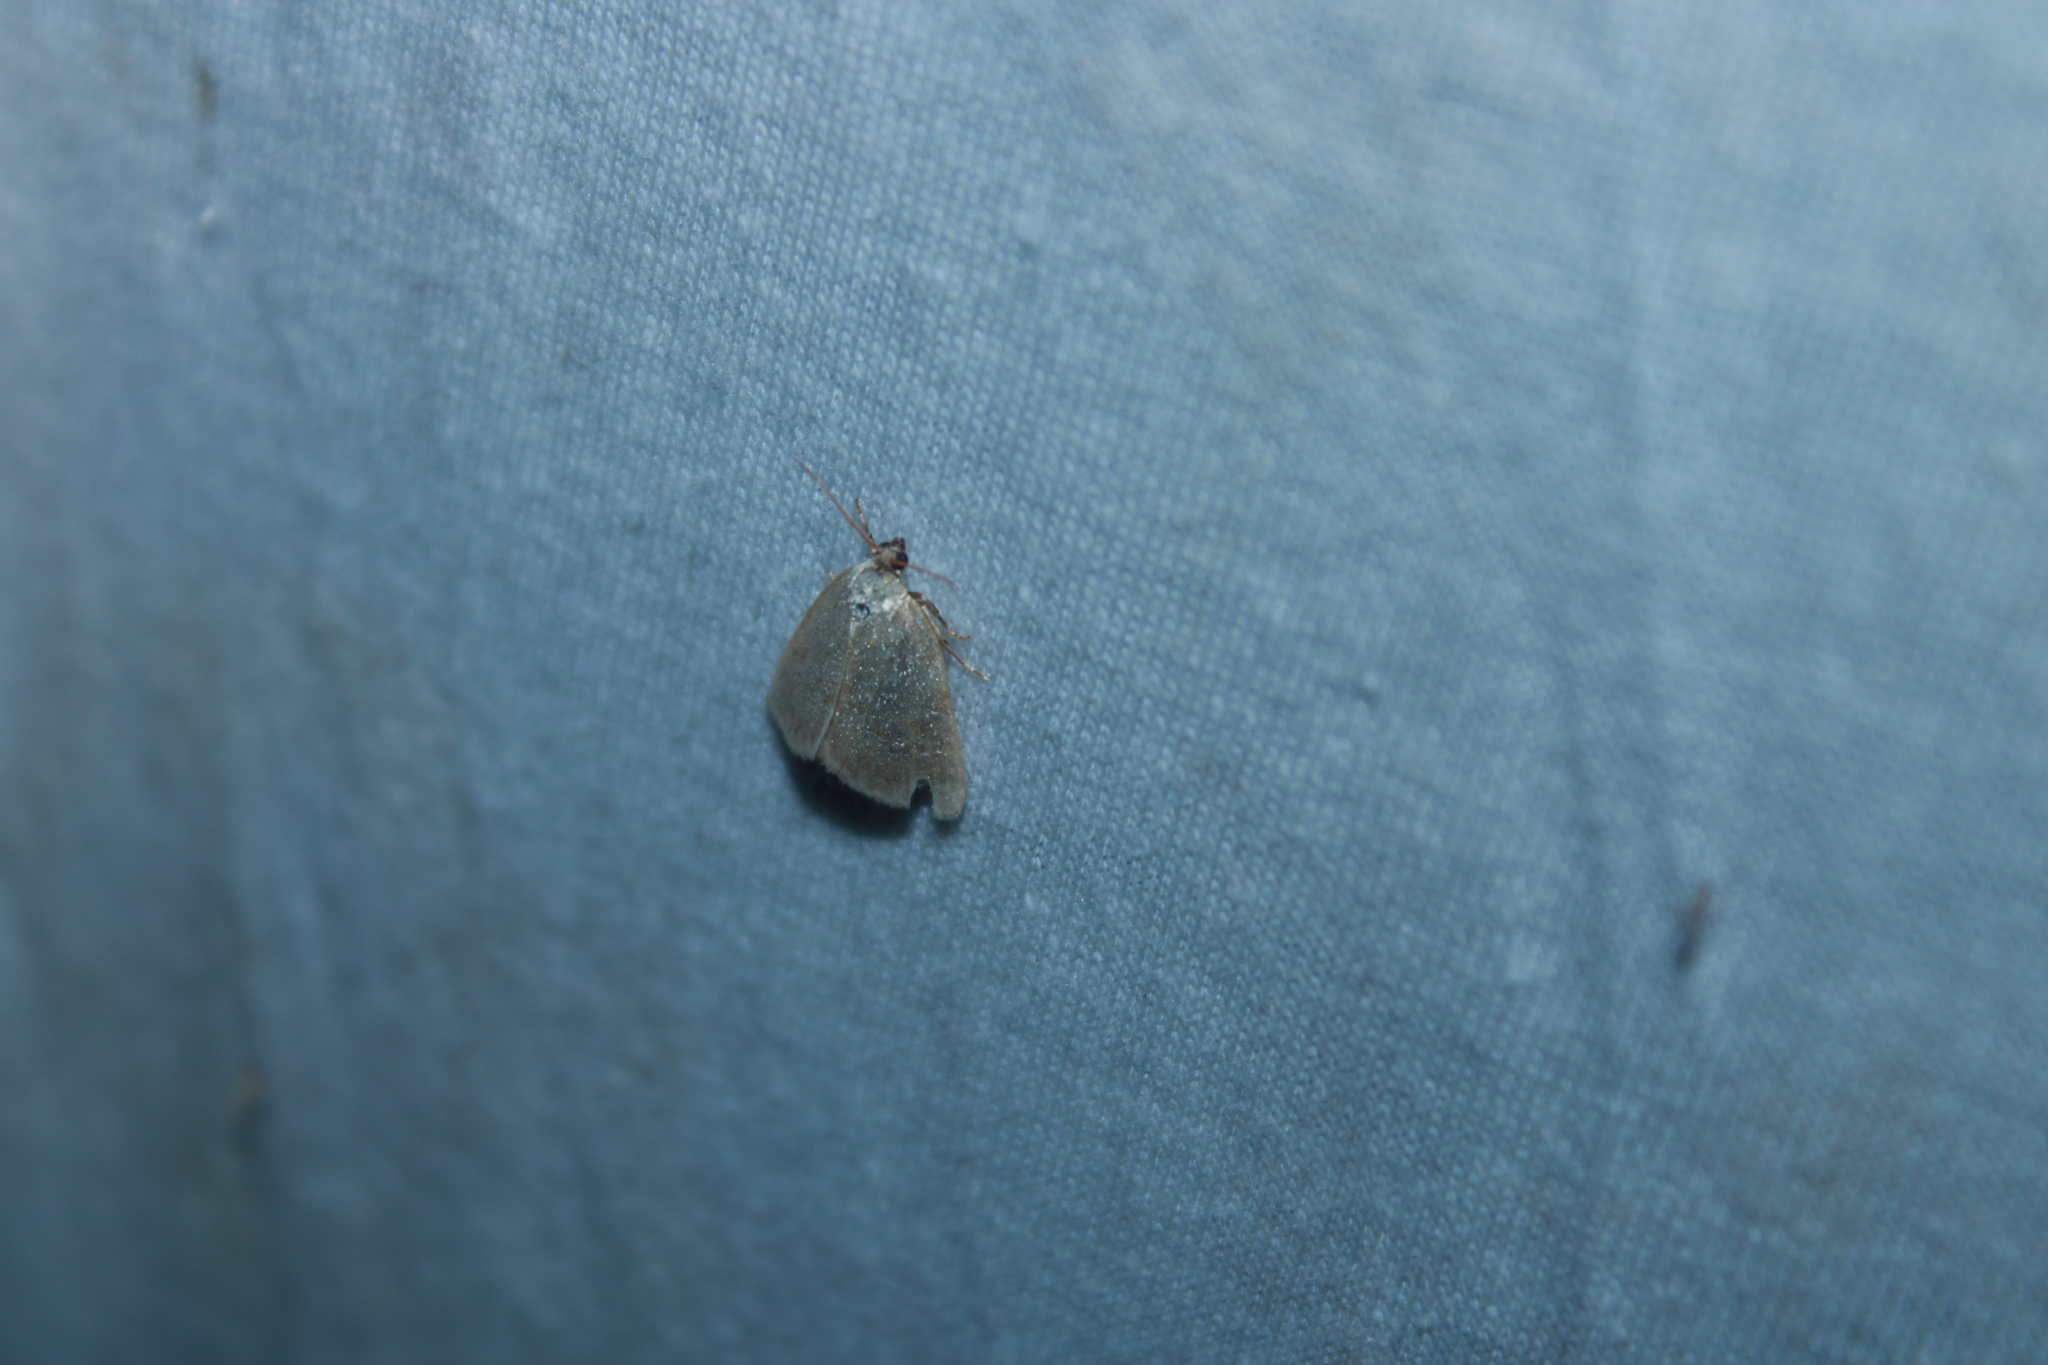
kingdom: Animalia
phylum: Arthropoda
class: Insecta
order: Lepidoptera
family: Noctuidae
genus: Protodeltote
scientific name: Protodeltote albidula
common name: Pale glyph
